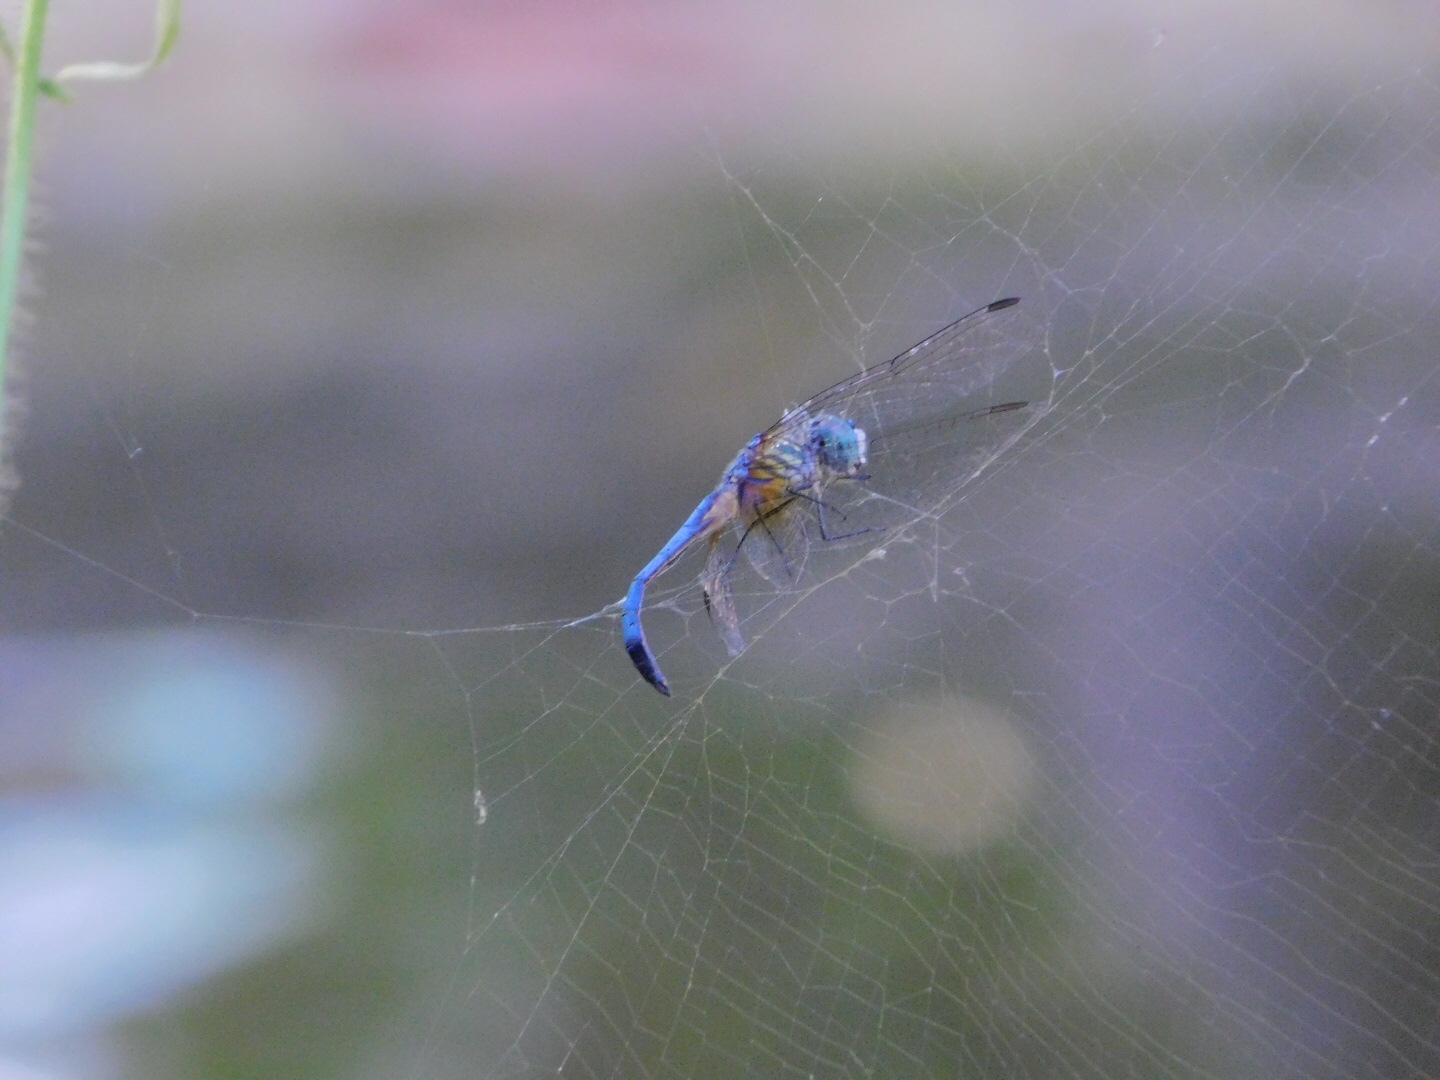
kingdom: Animalia
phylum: Arthropoda
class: Insecta
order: Odonata
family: Libellulidae
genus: Pachydiplax
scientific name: Pachydiplax longipennis
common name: Blue dasher
